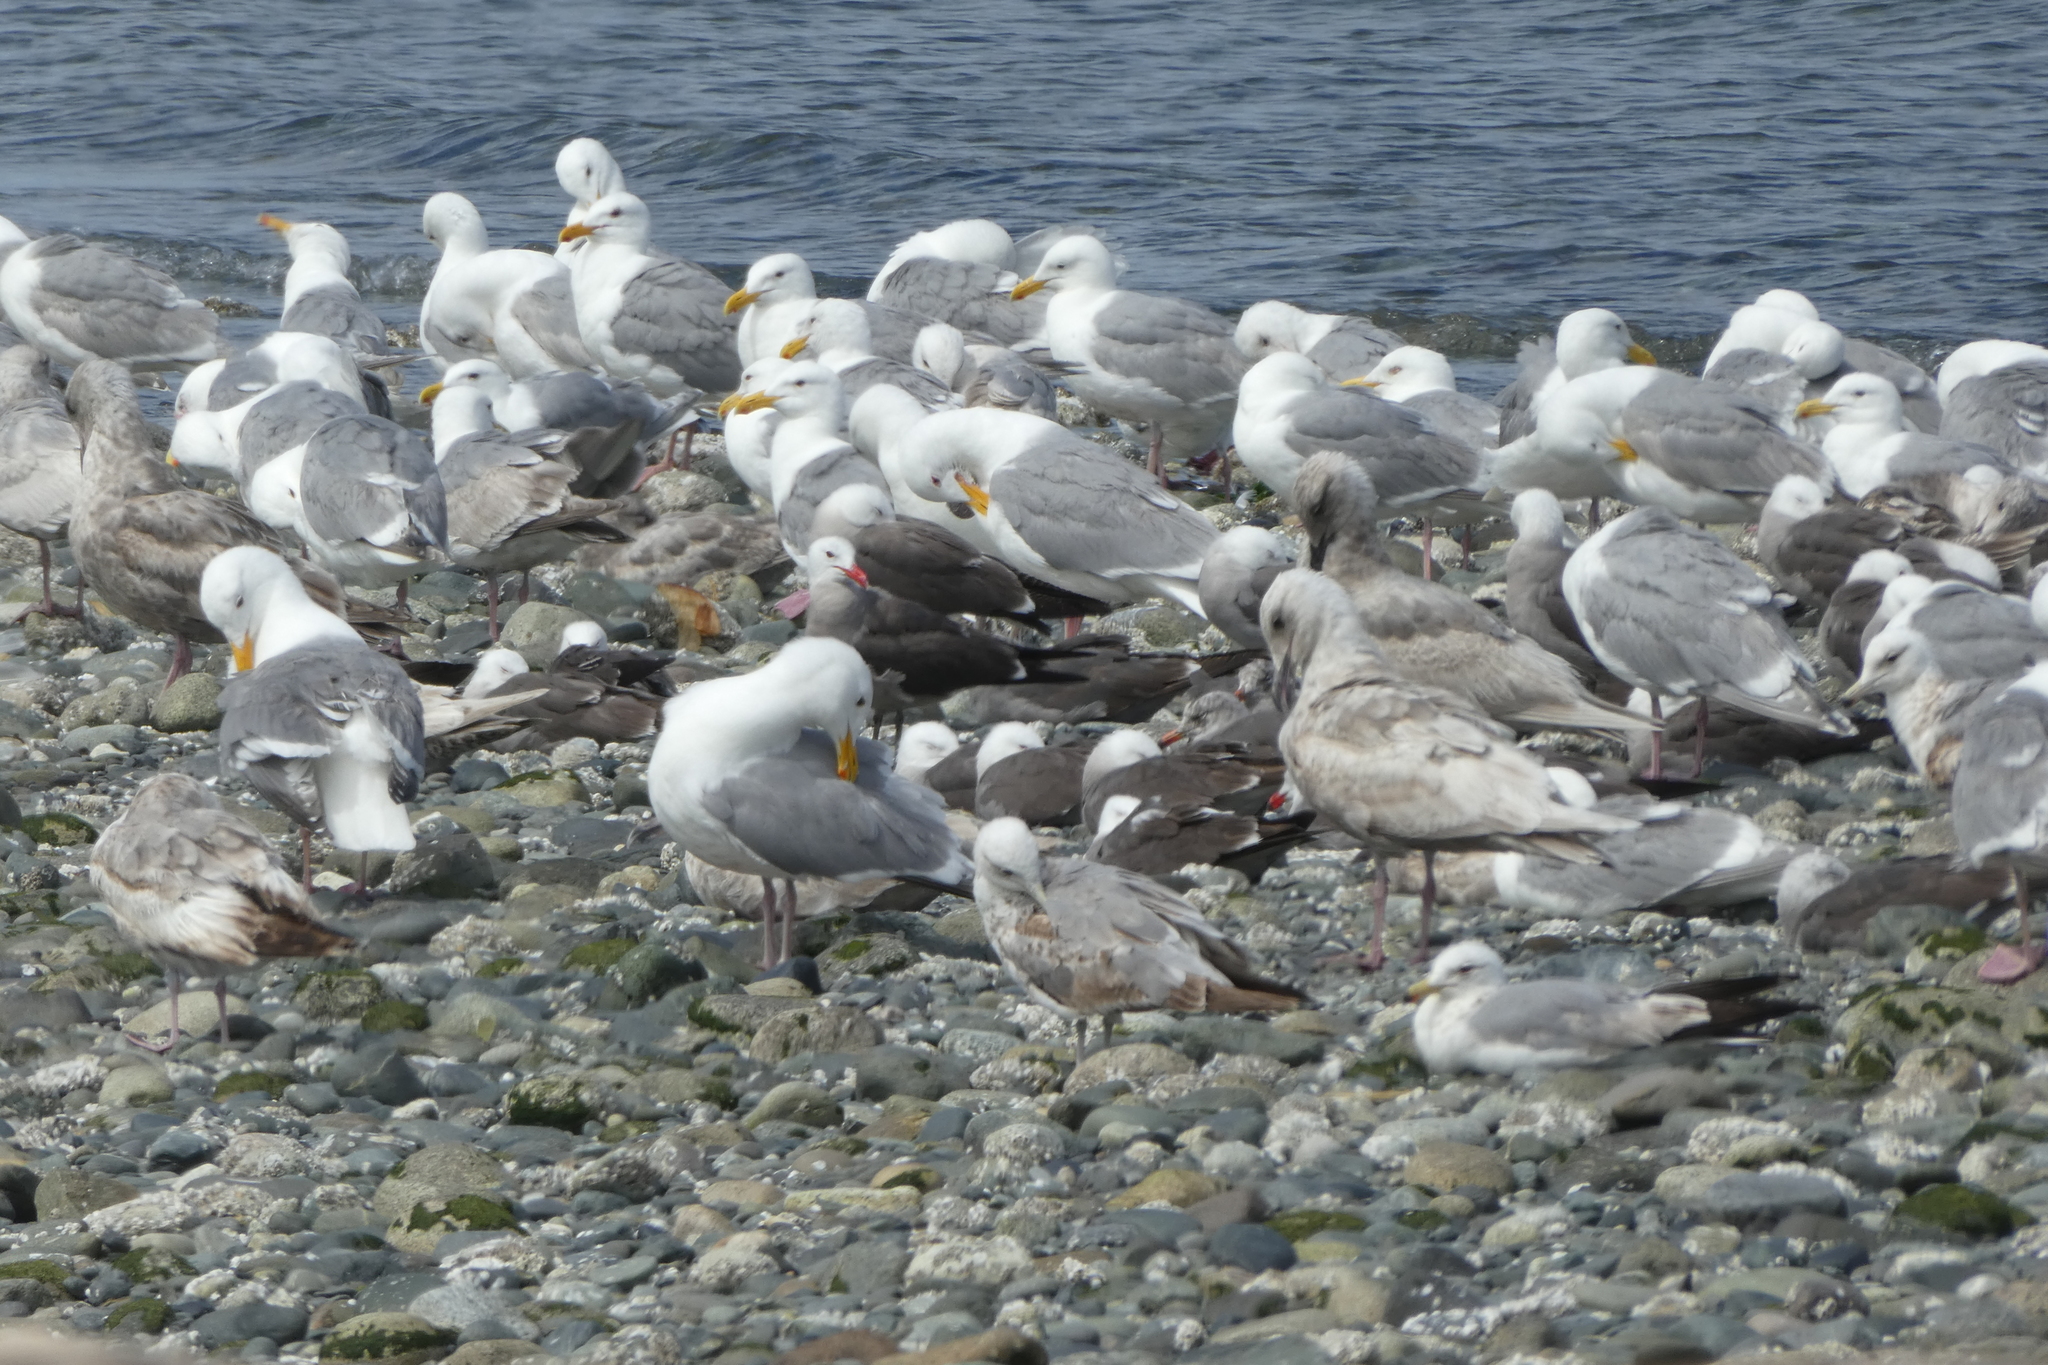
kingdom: Animalia
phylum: Chordata
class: Aves
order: Charadriiformes
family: Laridae
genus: Larus
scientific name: Larus heermanni
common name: Heermann's gull
